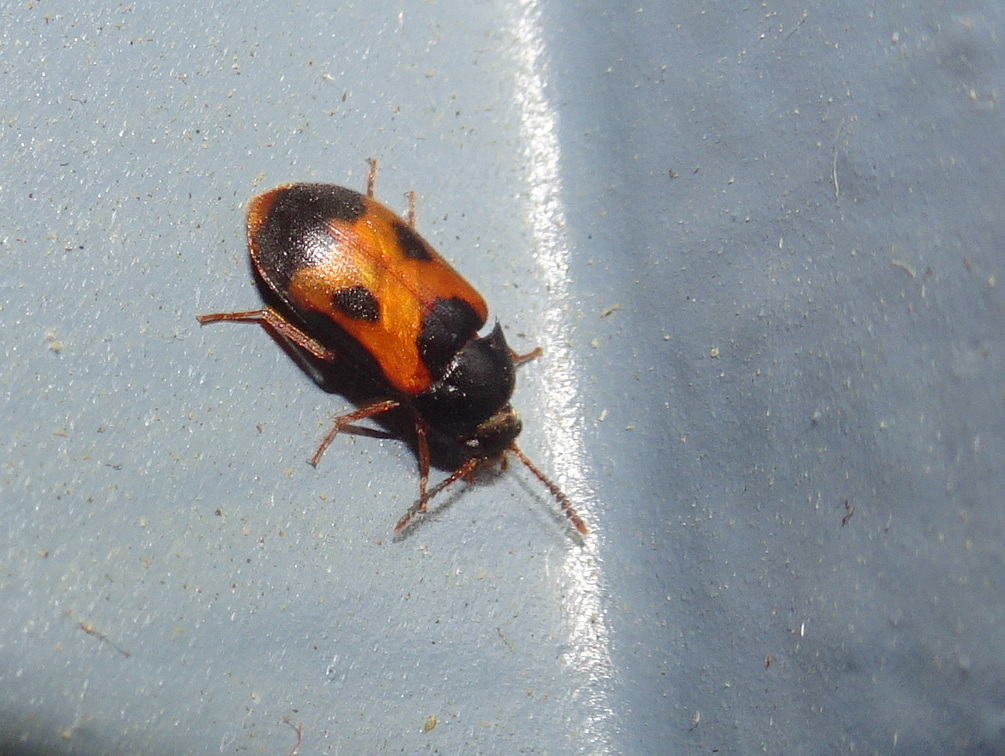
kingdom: Animalia
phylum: Arthropoda
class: Insecta
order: Coleoptera
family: Mycetophagidae
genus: Mycetophagus
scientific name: Mycetophagus punctatus
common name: Hairy fungus beetle
